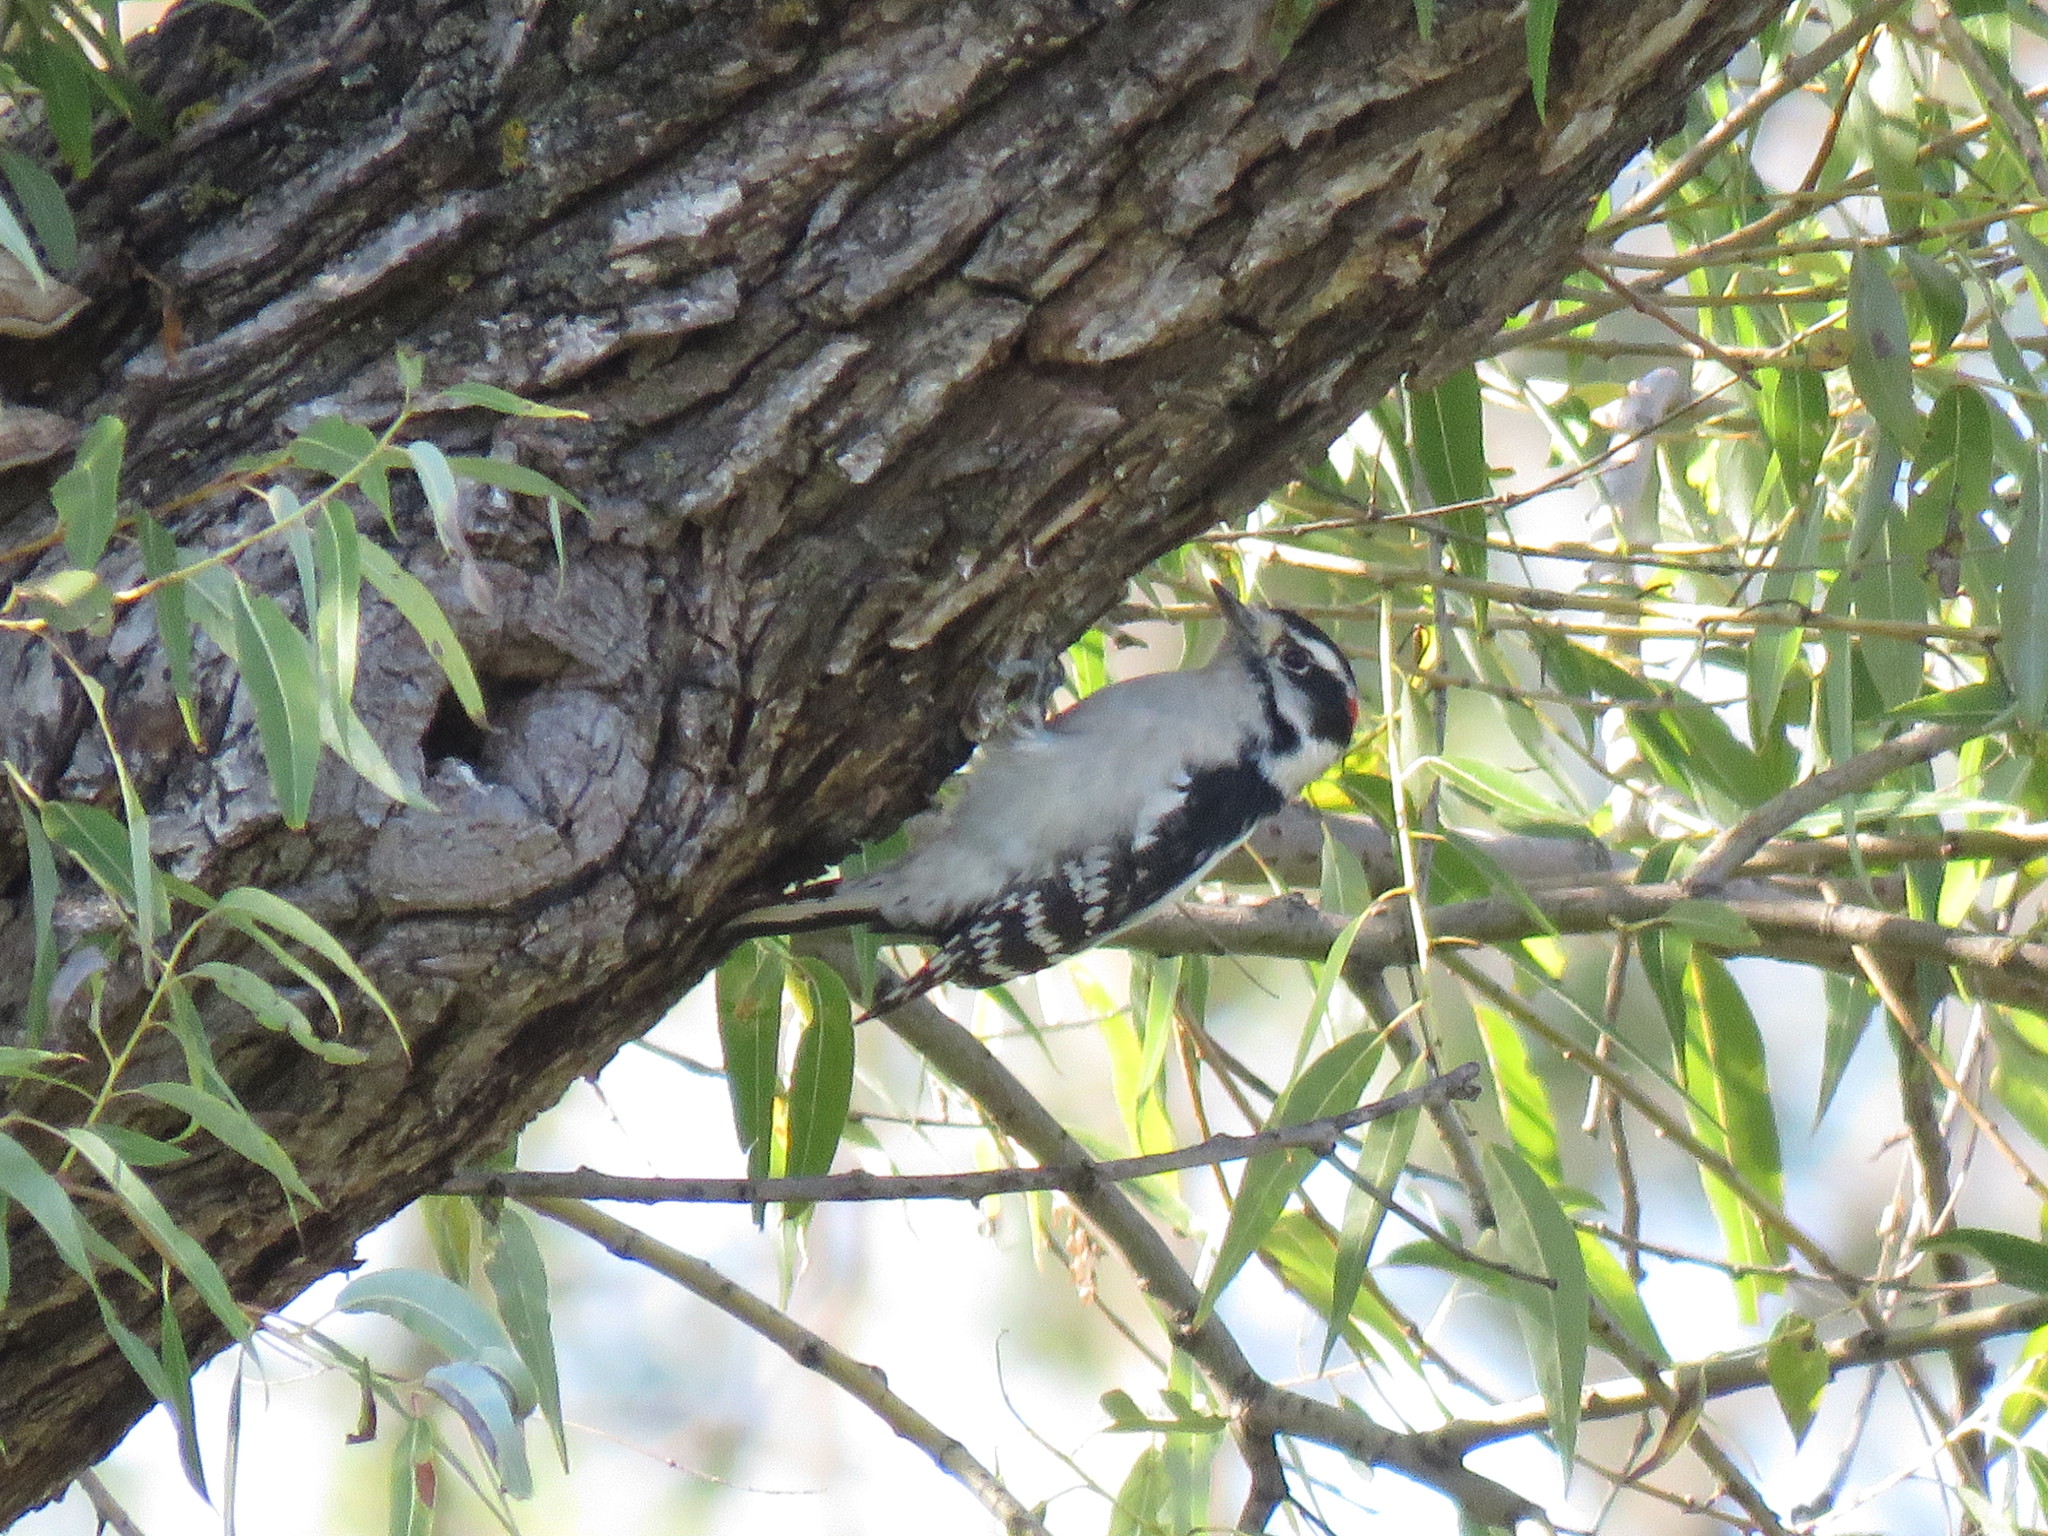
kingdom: Animalia
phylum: Chordata
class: Aves
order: Piciformes
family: Picidae
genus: Dryobates
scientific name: Dryobates pubescens
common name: Downy woodpecker
